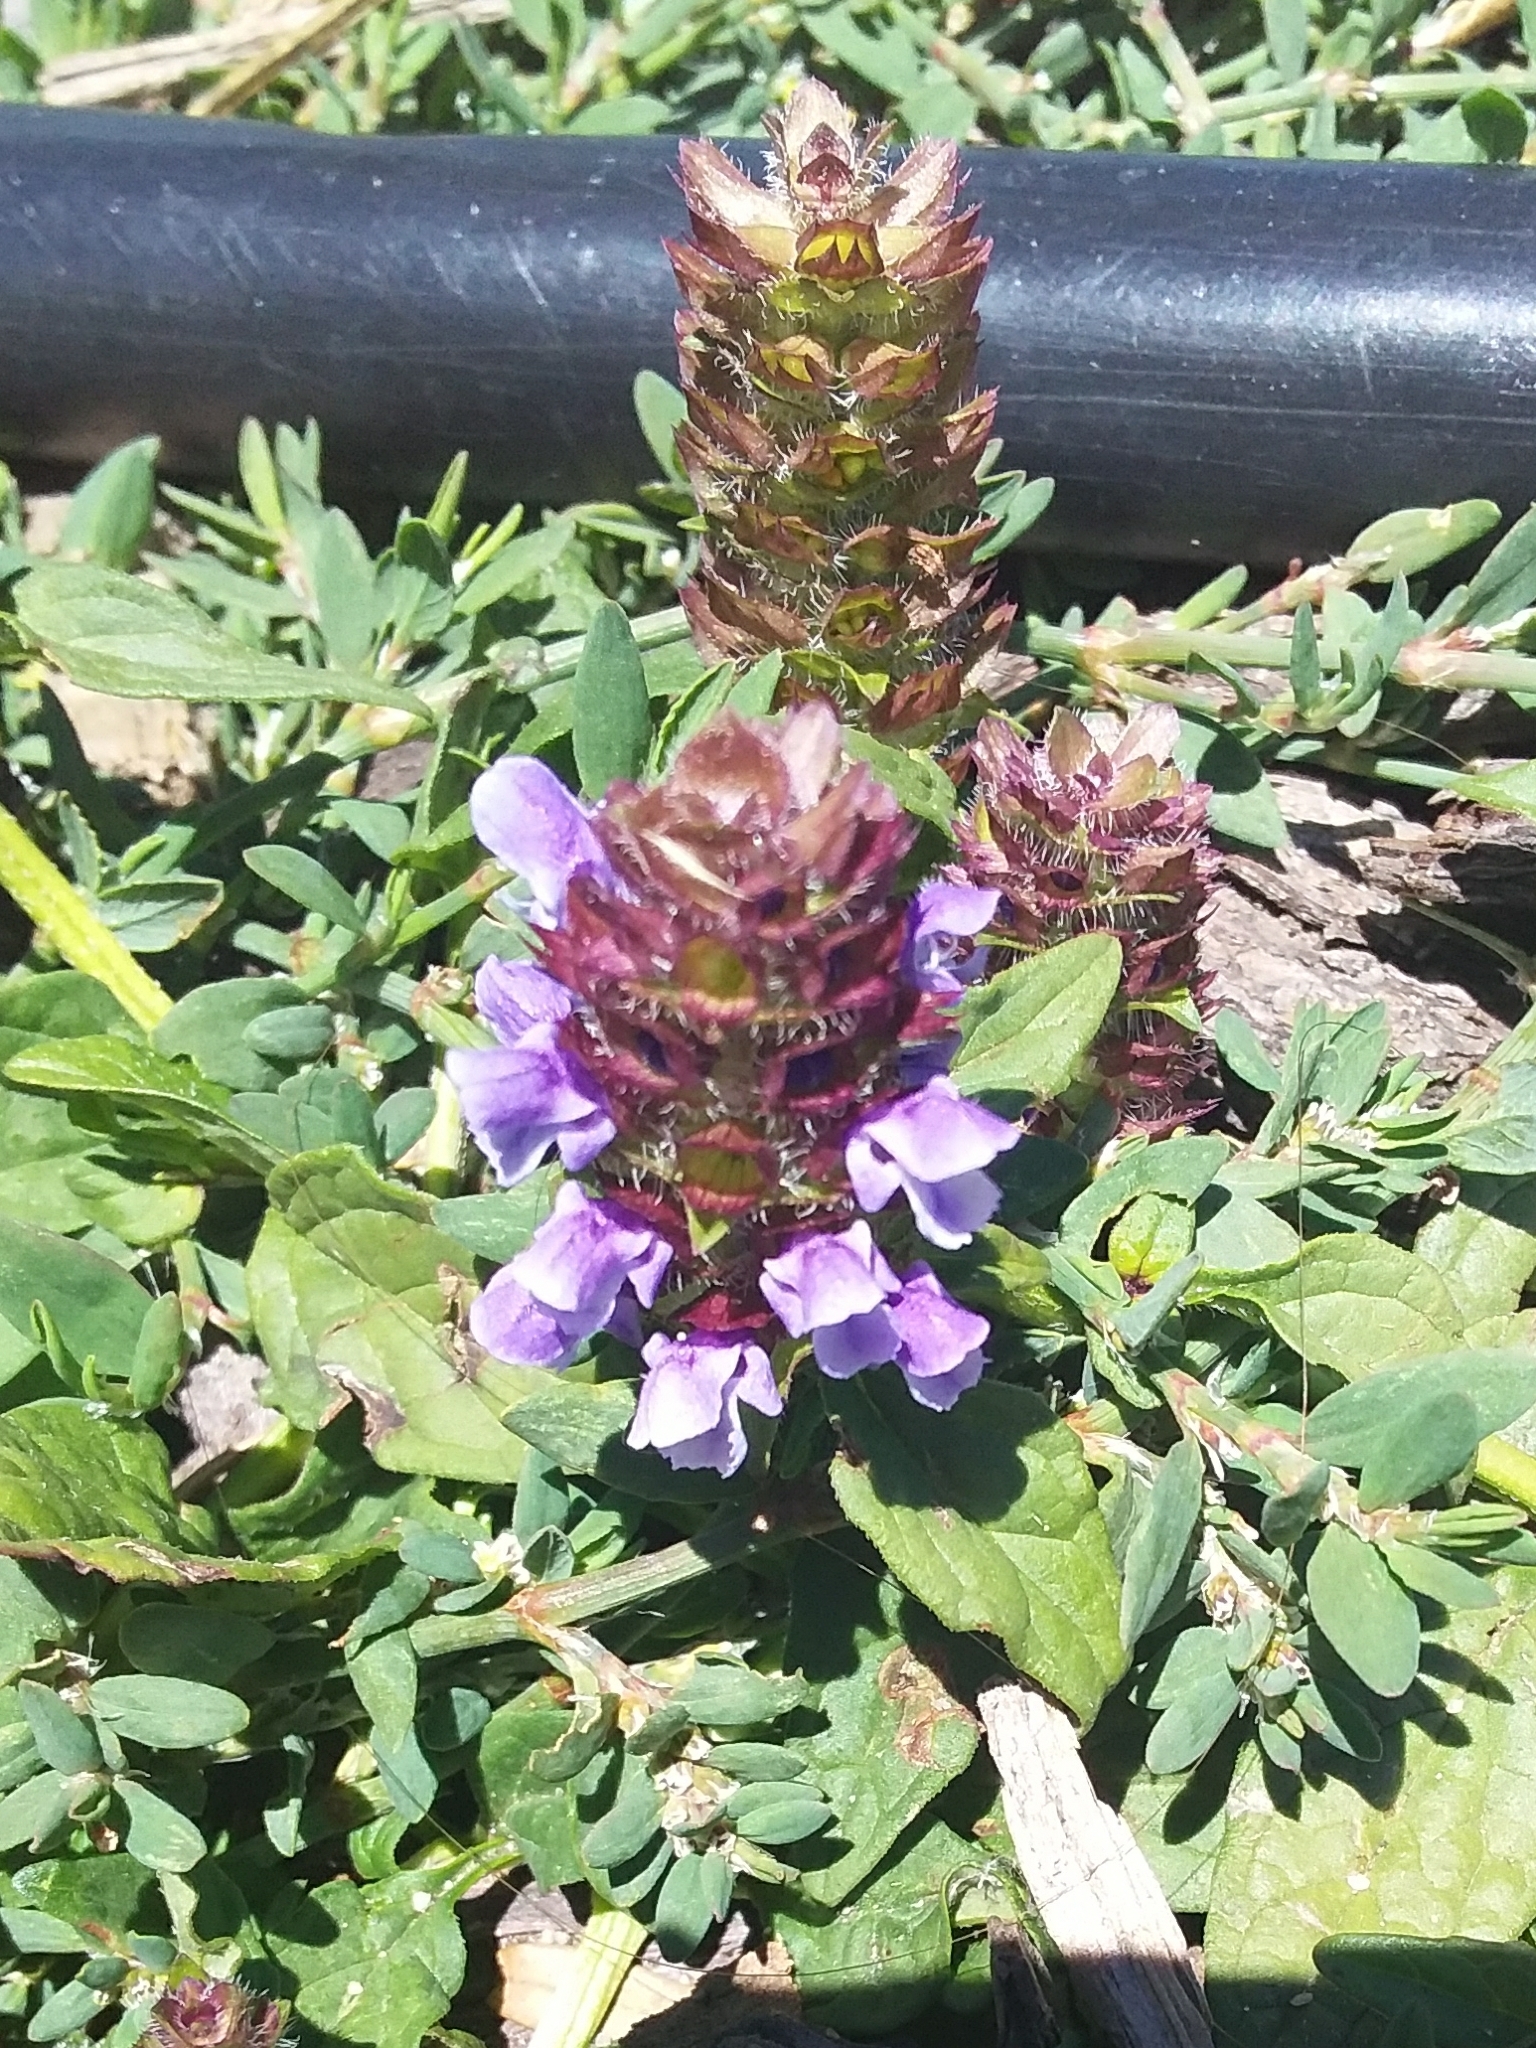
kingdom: Plantae
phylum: Tracheophyta
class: Magnoliopsida
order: Lamiales
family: Lamiaceae
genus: Prunella
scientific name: Prunella vulgaris
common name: Heal-all
